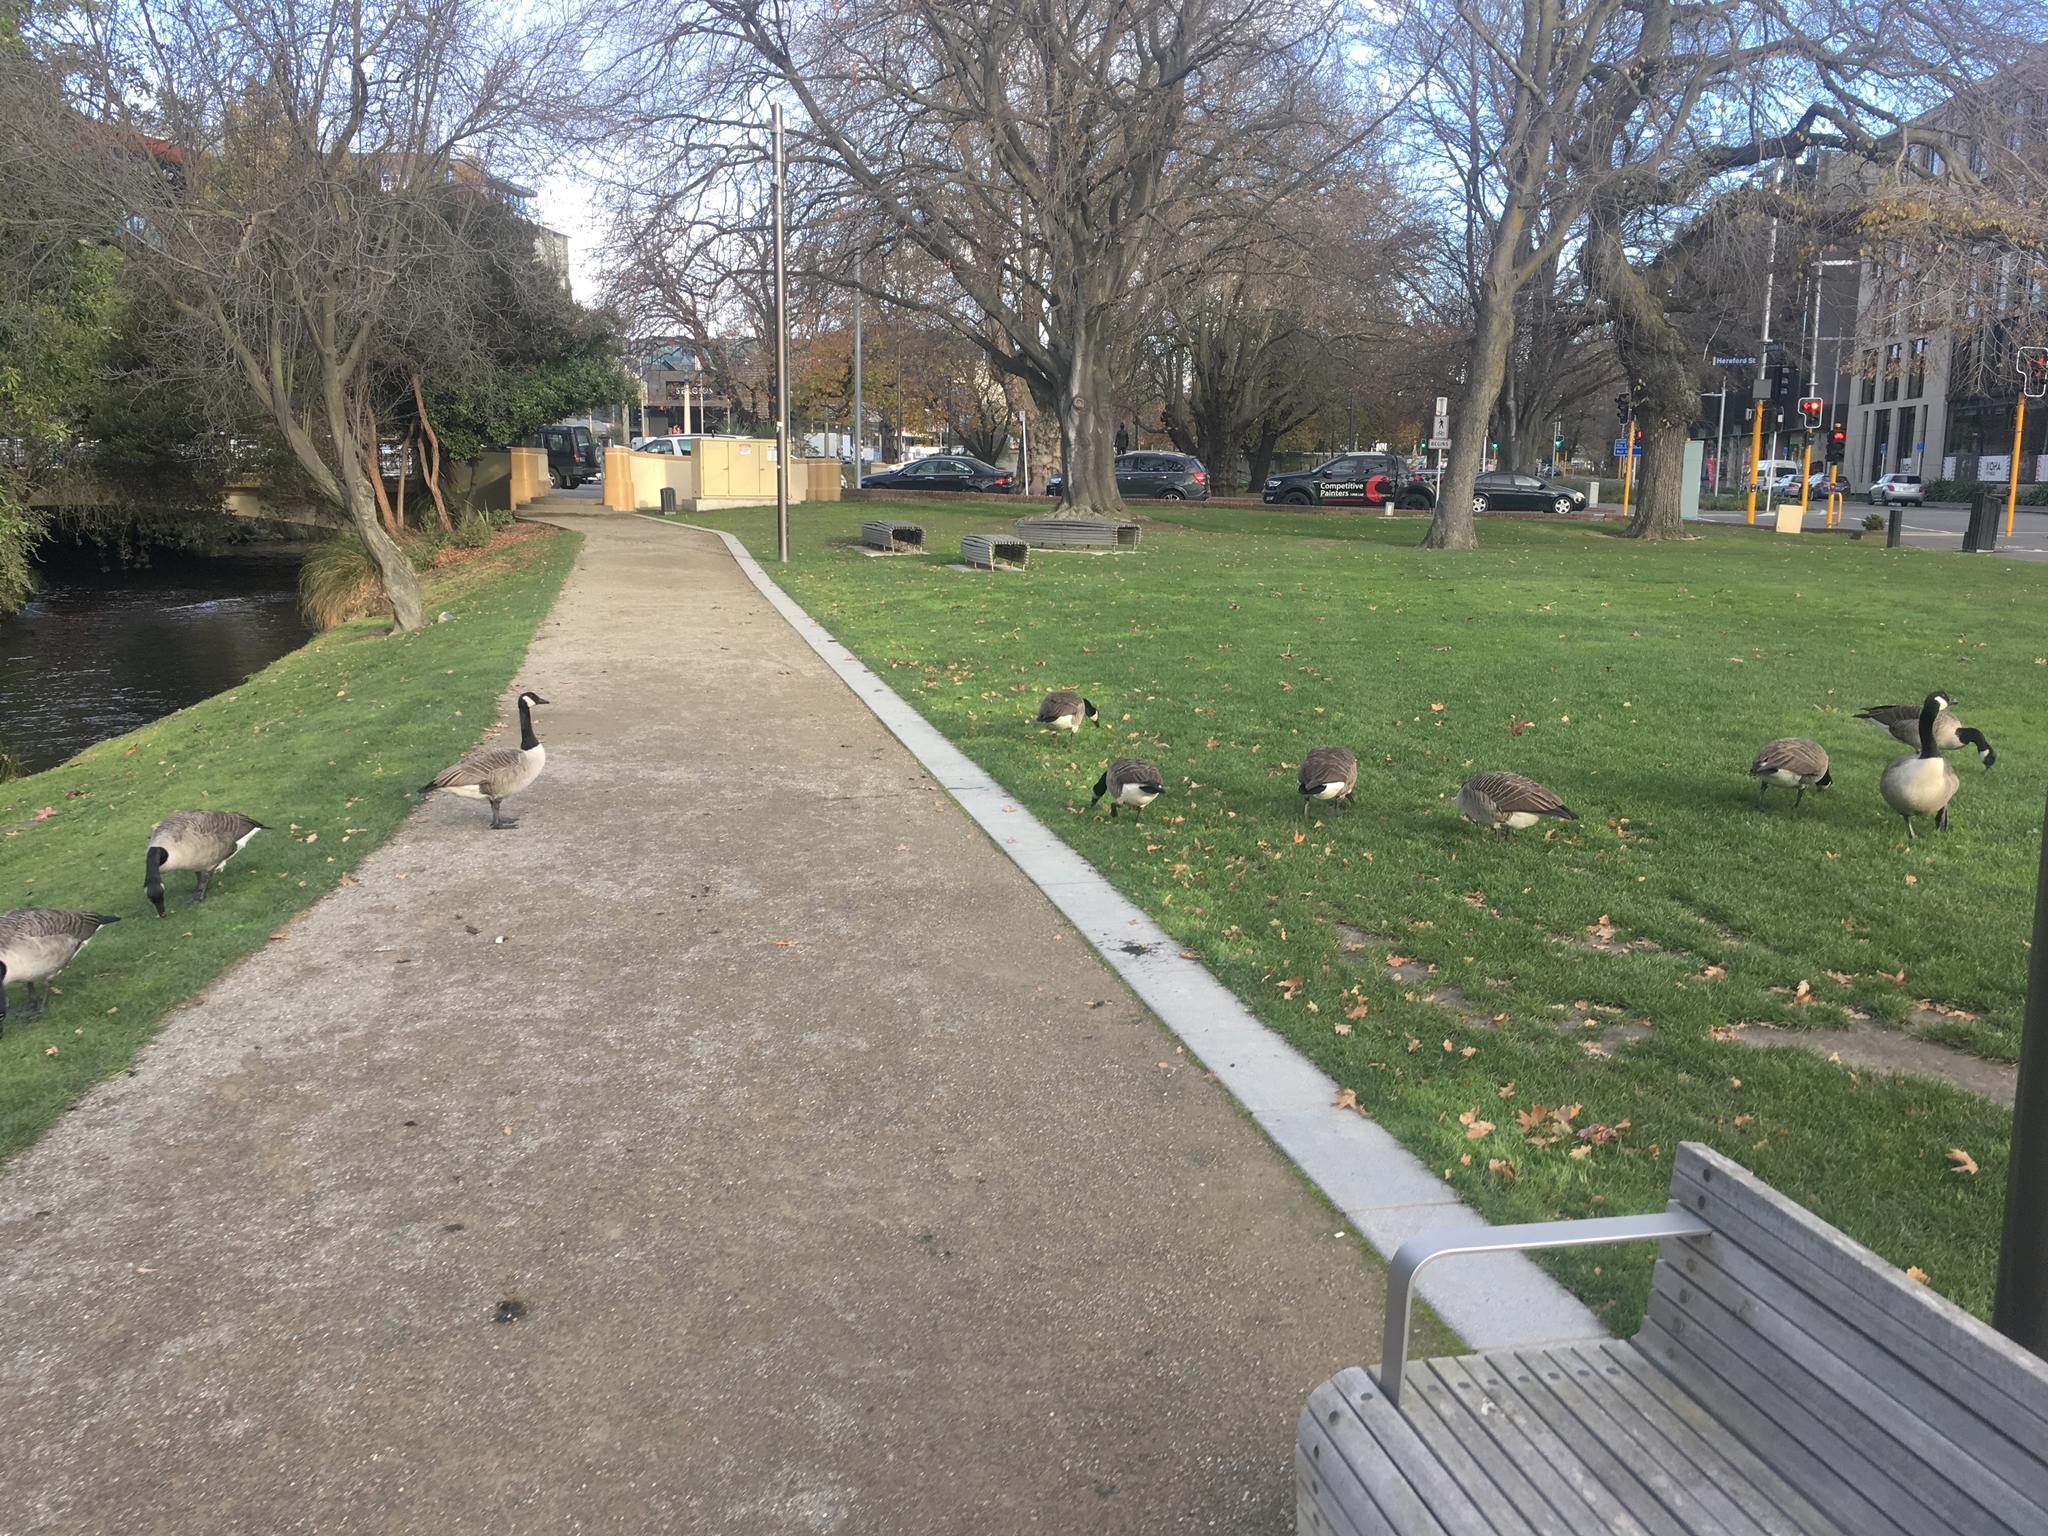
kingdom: Animalia
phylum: Chordata
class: Aves
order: Anseriformes
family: Anatidae
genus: Branta
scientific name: Branta canadensis
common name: Canada goose
